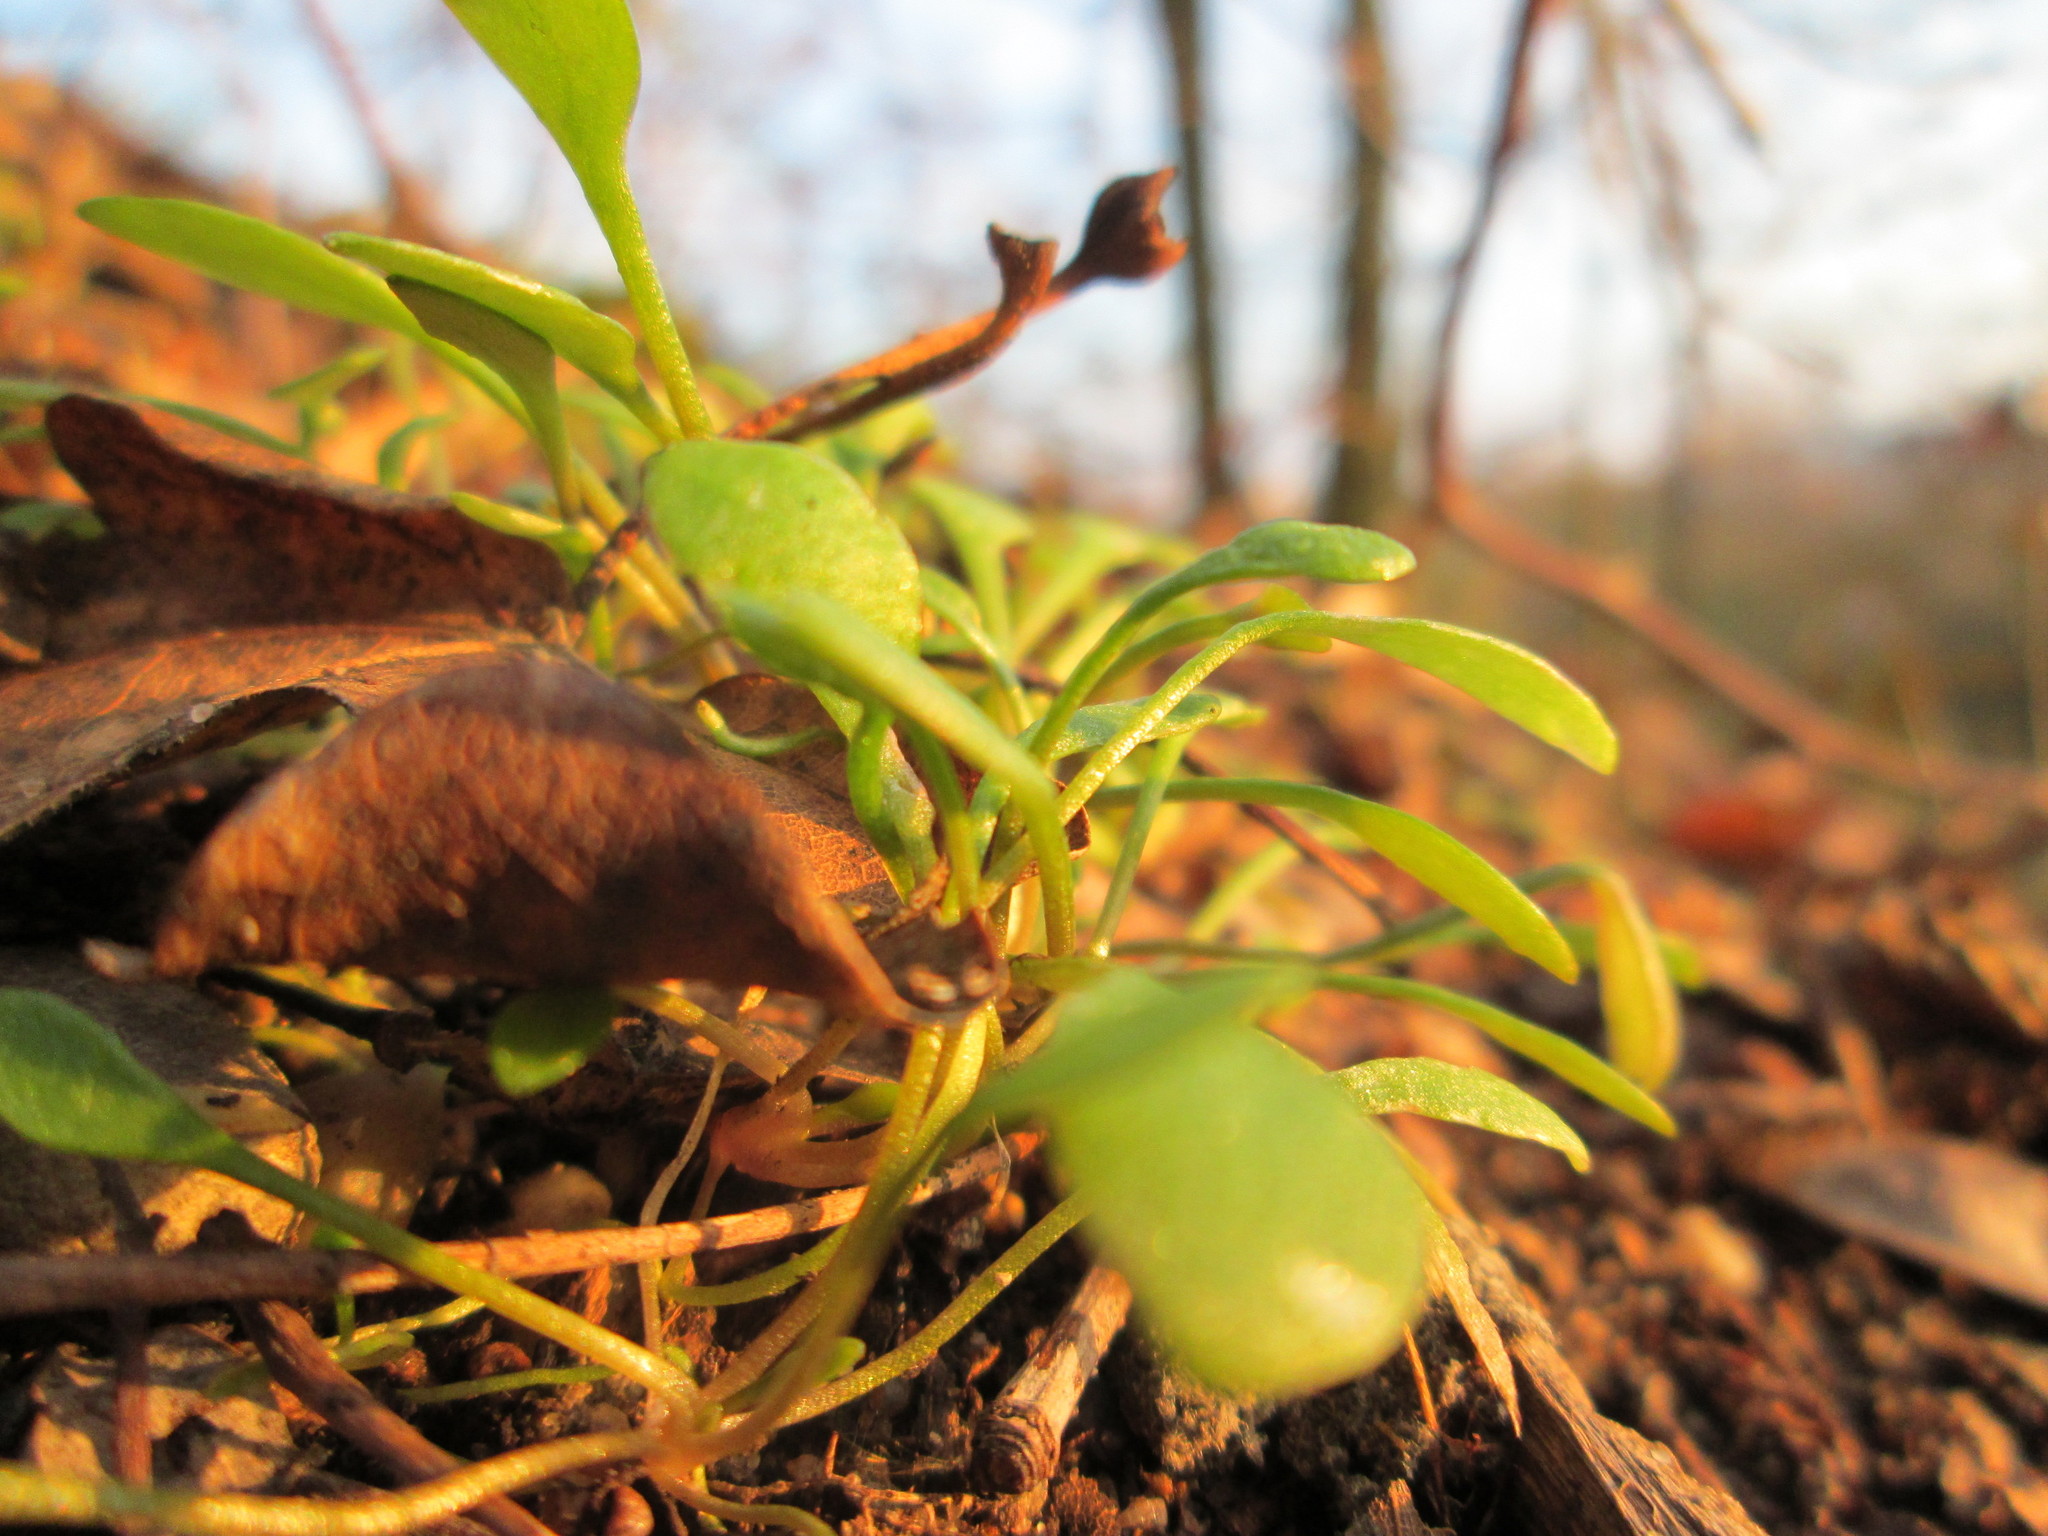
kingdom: Plantae
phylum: Tracheophyta
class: Magnoliopsida
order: Caryophyllales
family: Montiaceae
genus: Claytonia
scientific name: Claytonia perfoliata
